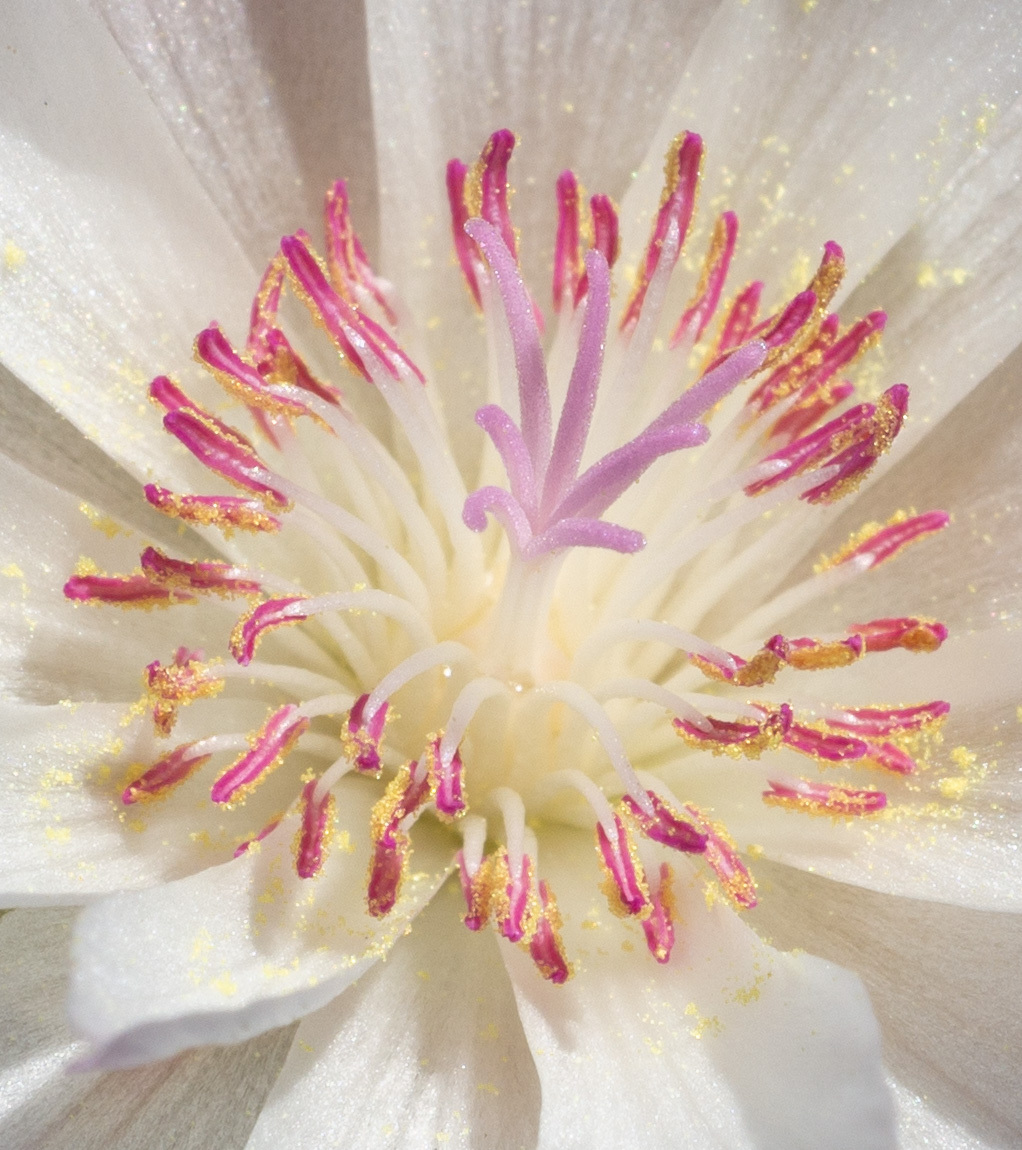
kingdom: Plantae
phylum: Tracheophyta
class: Magnoliopsida
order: Caryophyllales
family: Montiaceae
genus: Lewisia
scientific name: Lewisia rediviva
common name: Bitter-root
